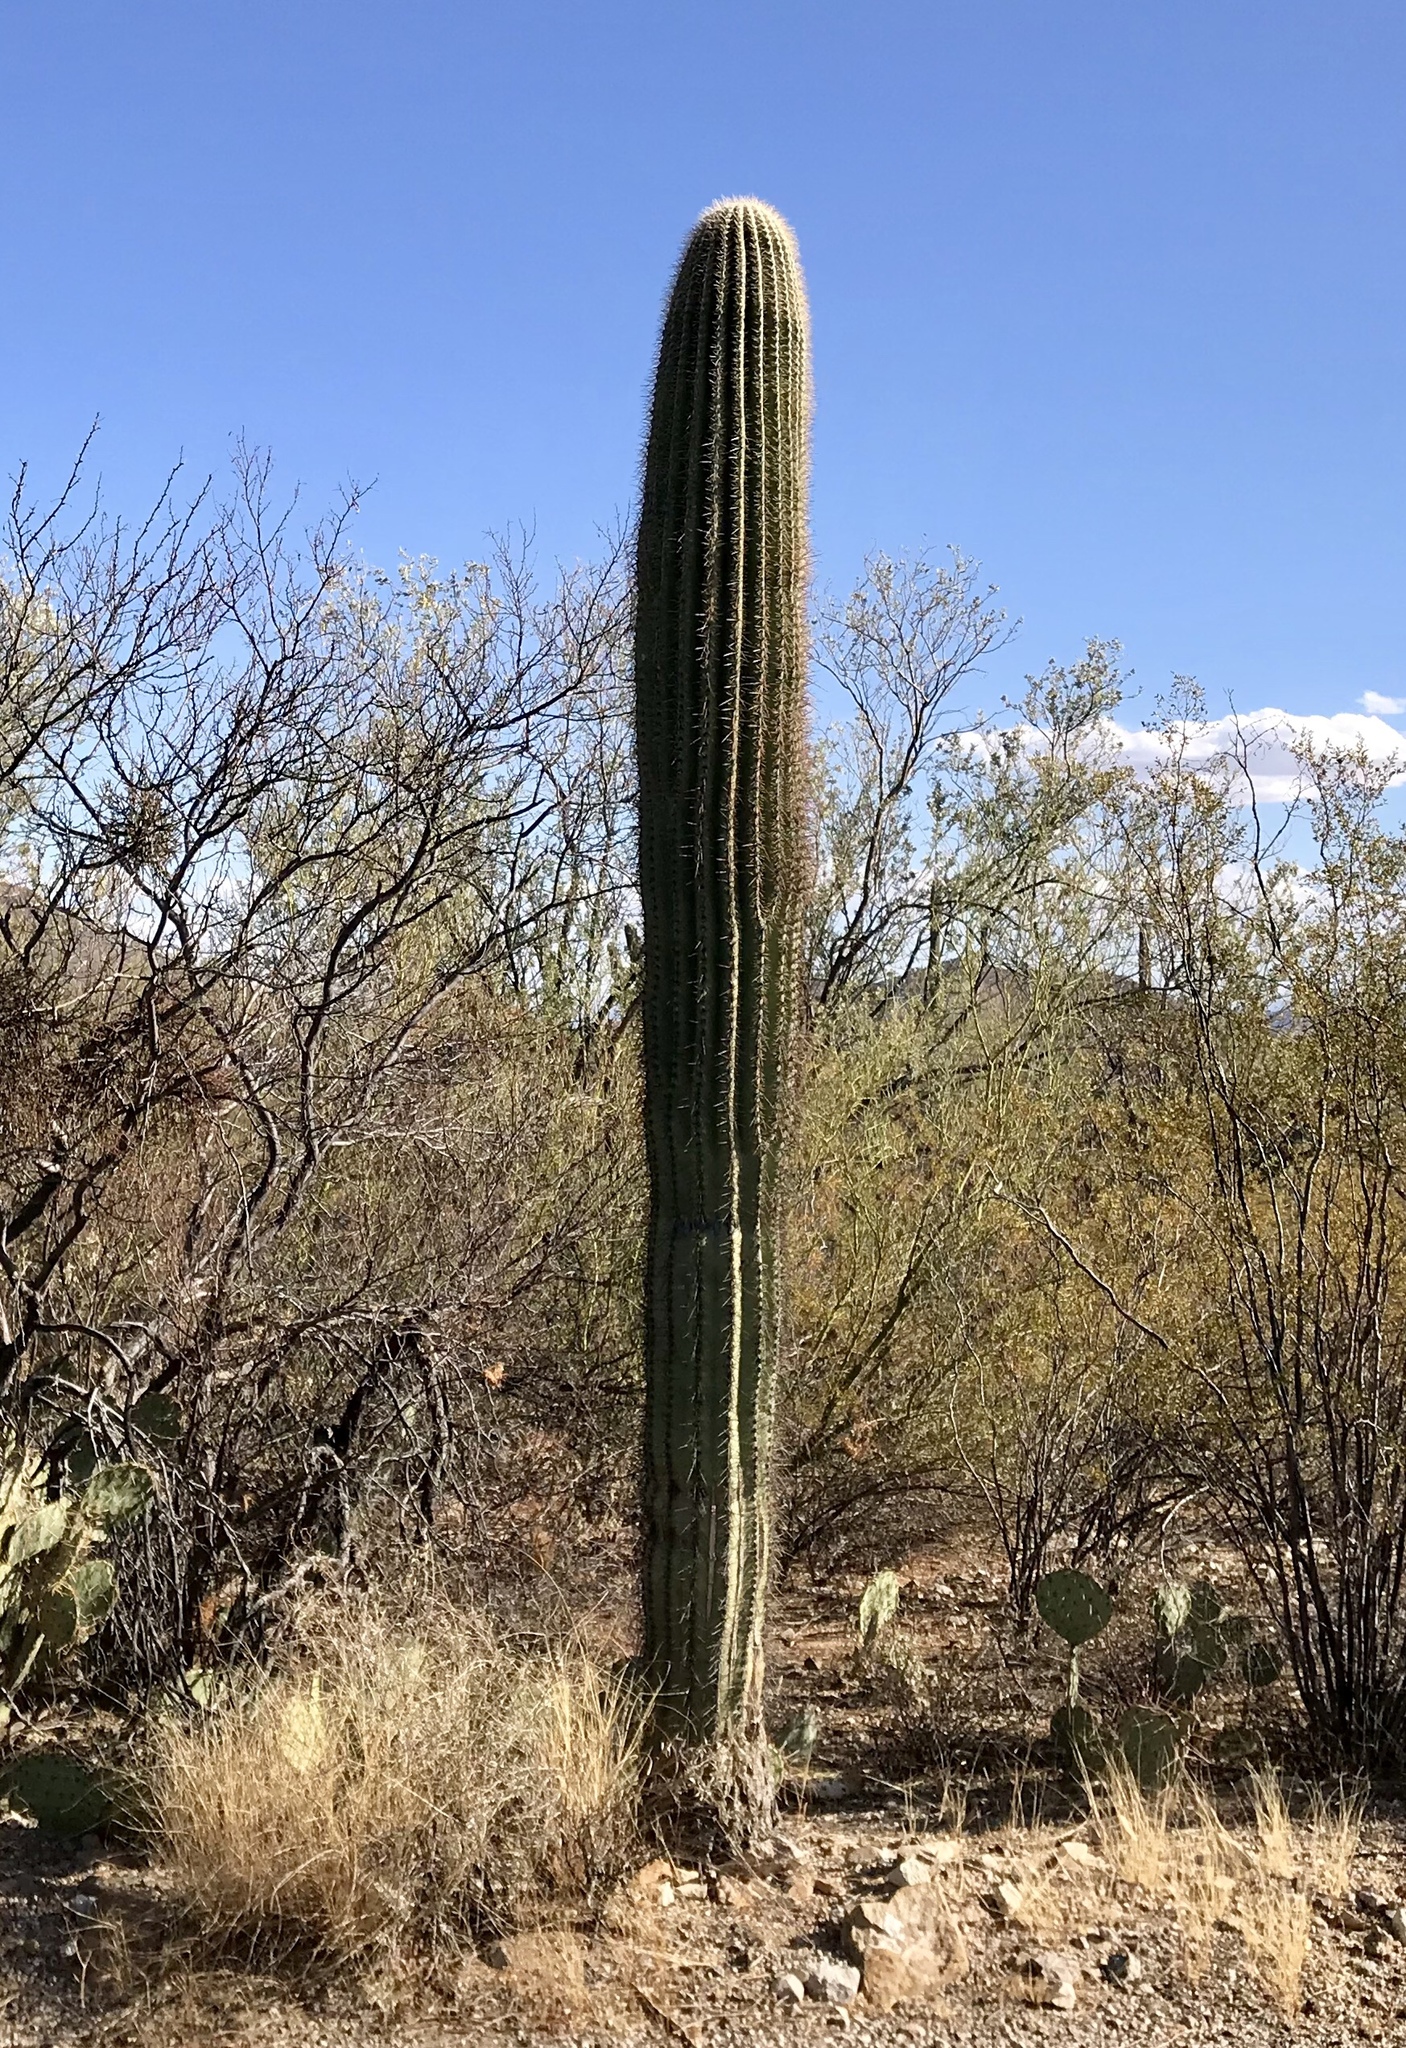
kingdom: Plantae
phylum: Tracheophyta
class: Magnoliopsida
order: Caryophyllales
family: Cactaceae
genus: Carnegiea
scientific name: Carnegiea gigantea
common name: Saguaro
